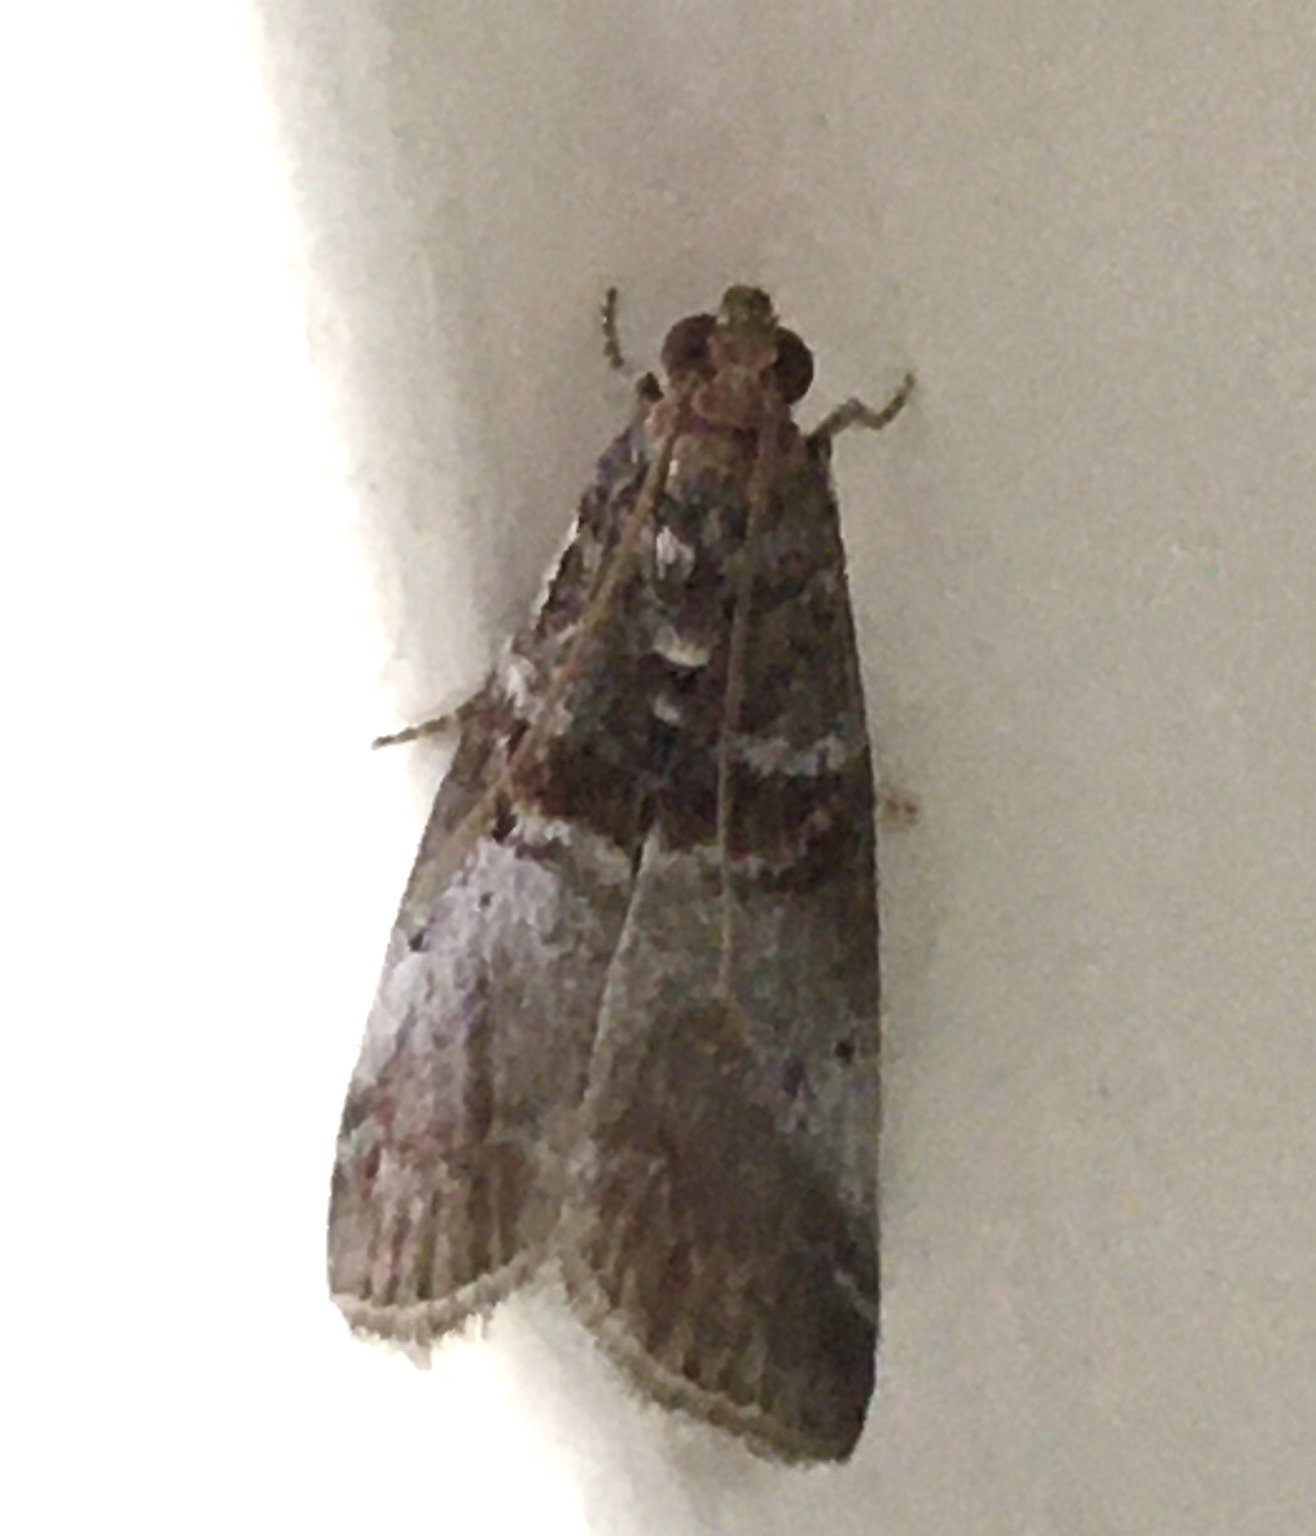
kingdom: Animalia
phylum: Arthropoda
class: Insecta
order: Lepidoptera
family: Pyralidae
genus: Acrobasis
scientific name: Acrobasis advenella
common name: Grey knot-horn
